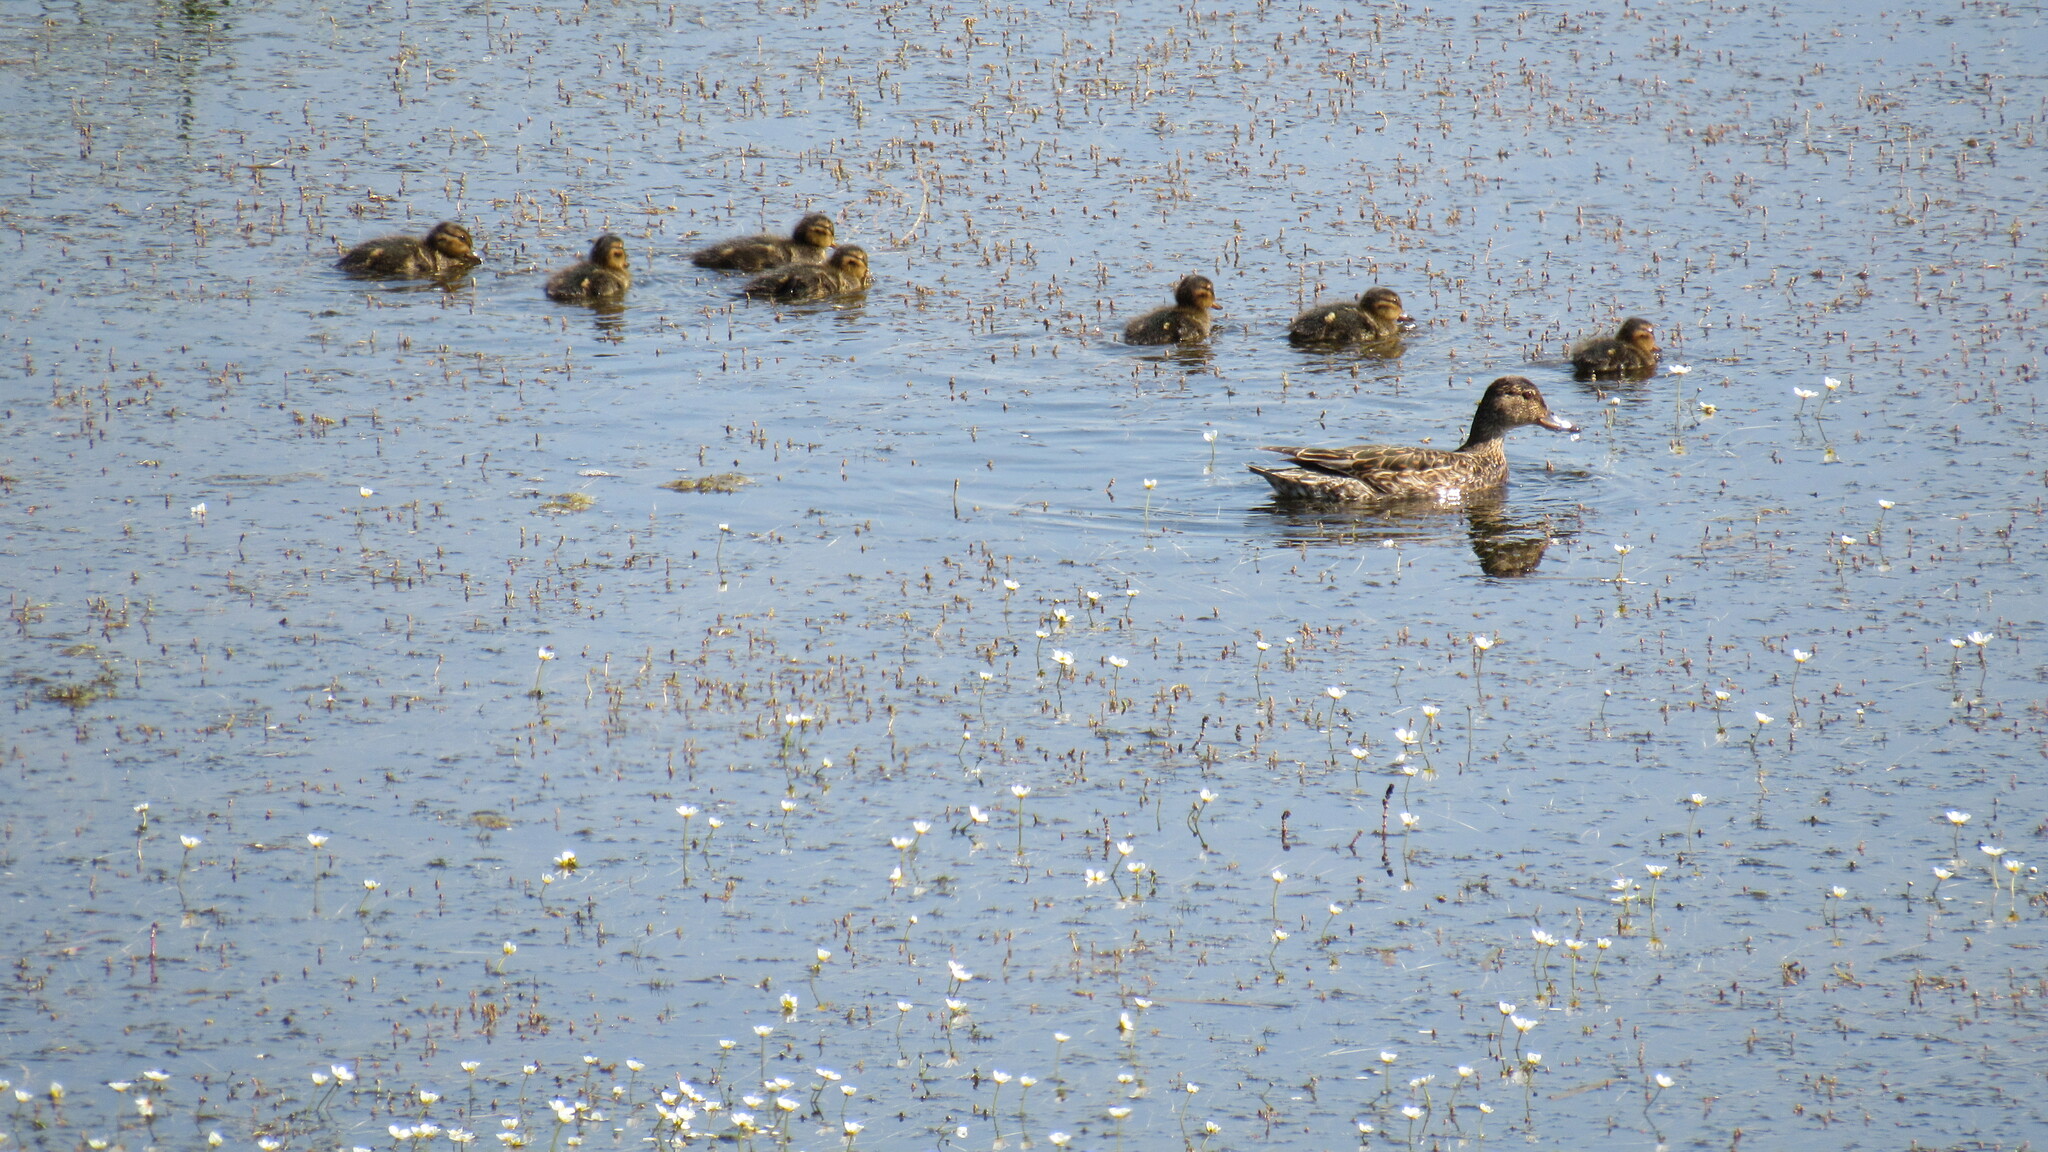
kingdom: Animalia
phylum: Chordata
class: Aves
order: Anseriformes
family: Anatidae
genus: Anas
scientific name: Anas crecca
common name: Eurasian teal
